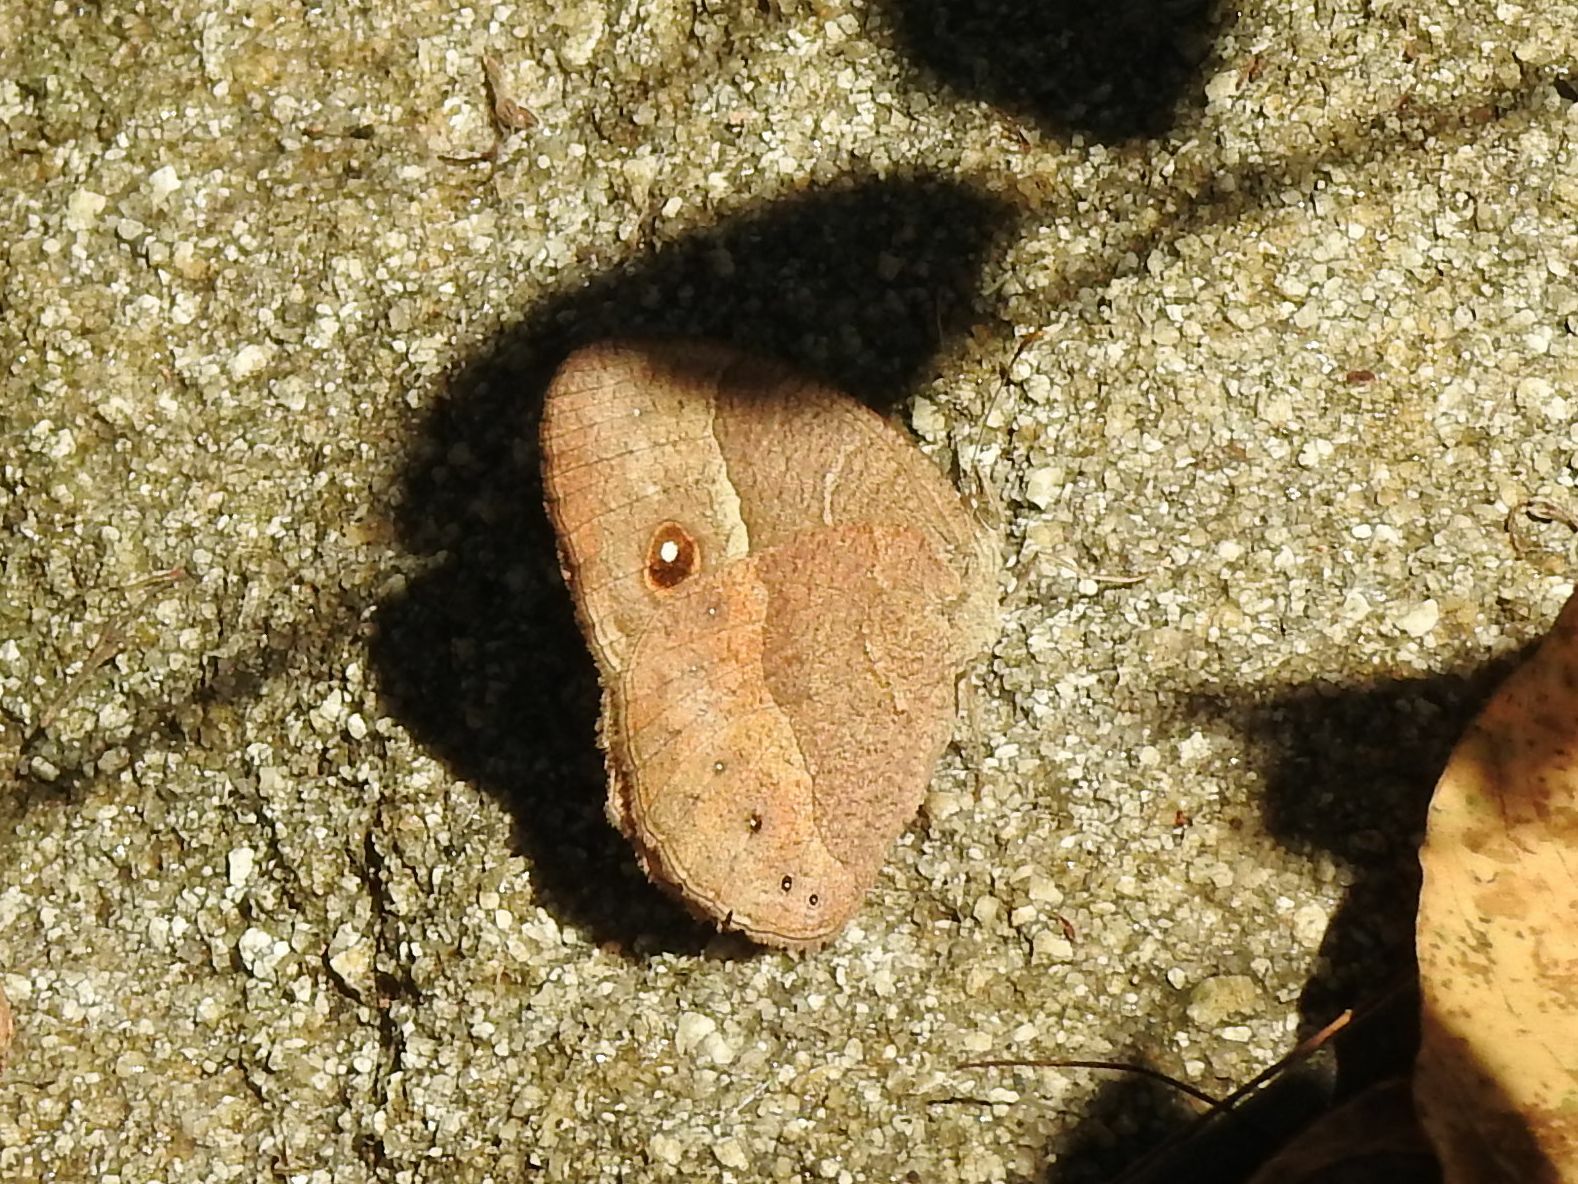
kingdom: Animalia
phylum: Arthropoda
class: Insecta
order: Lepidoptera
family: Nymphalidae
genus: Mycalesis
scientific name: Mycalesis anynana
